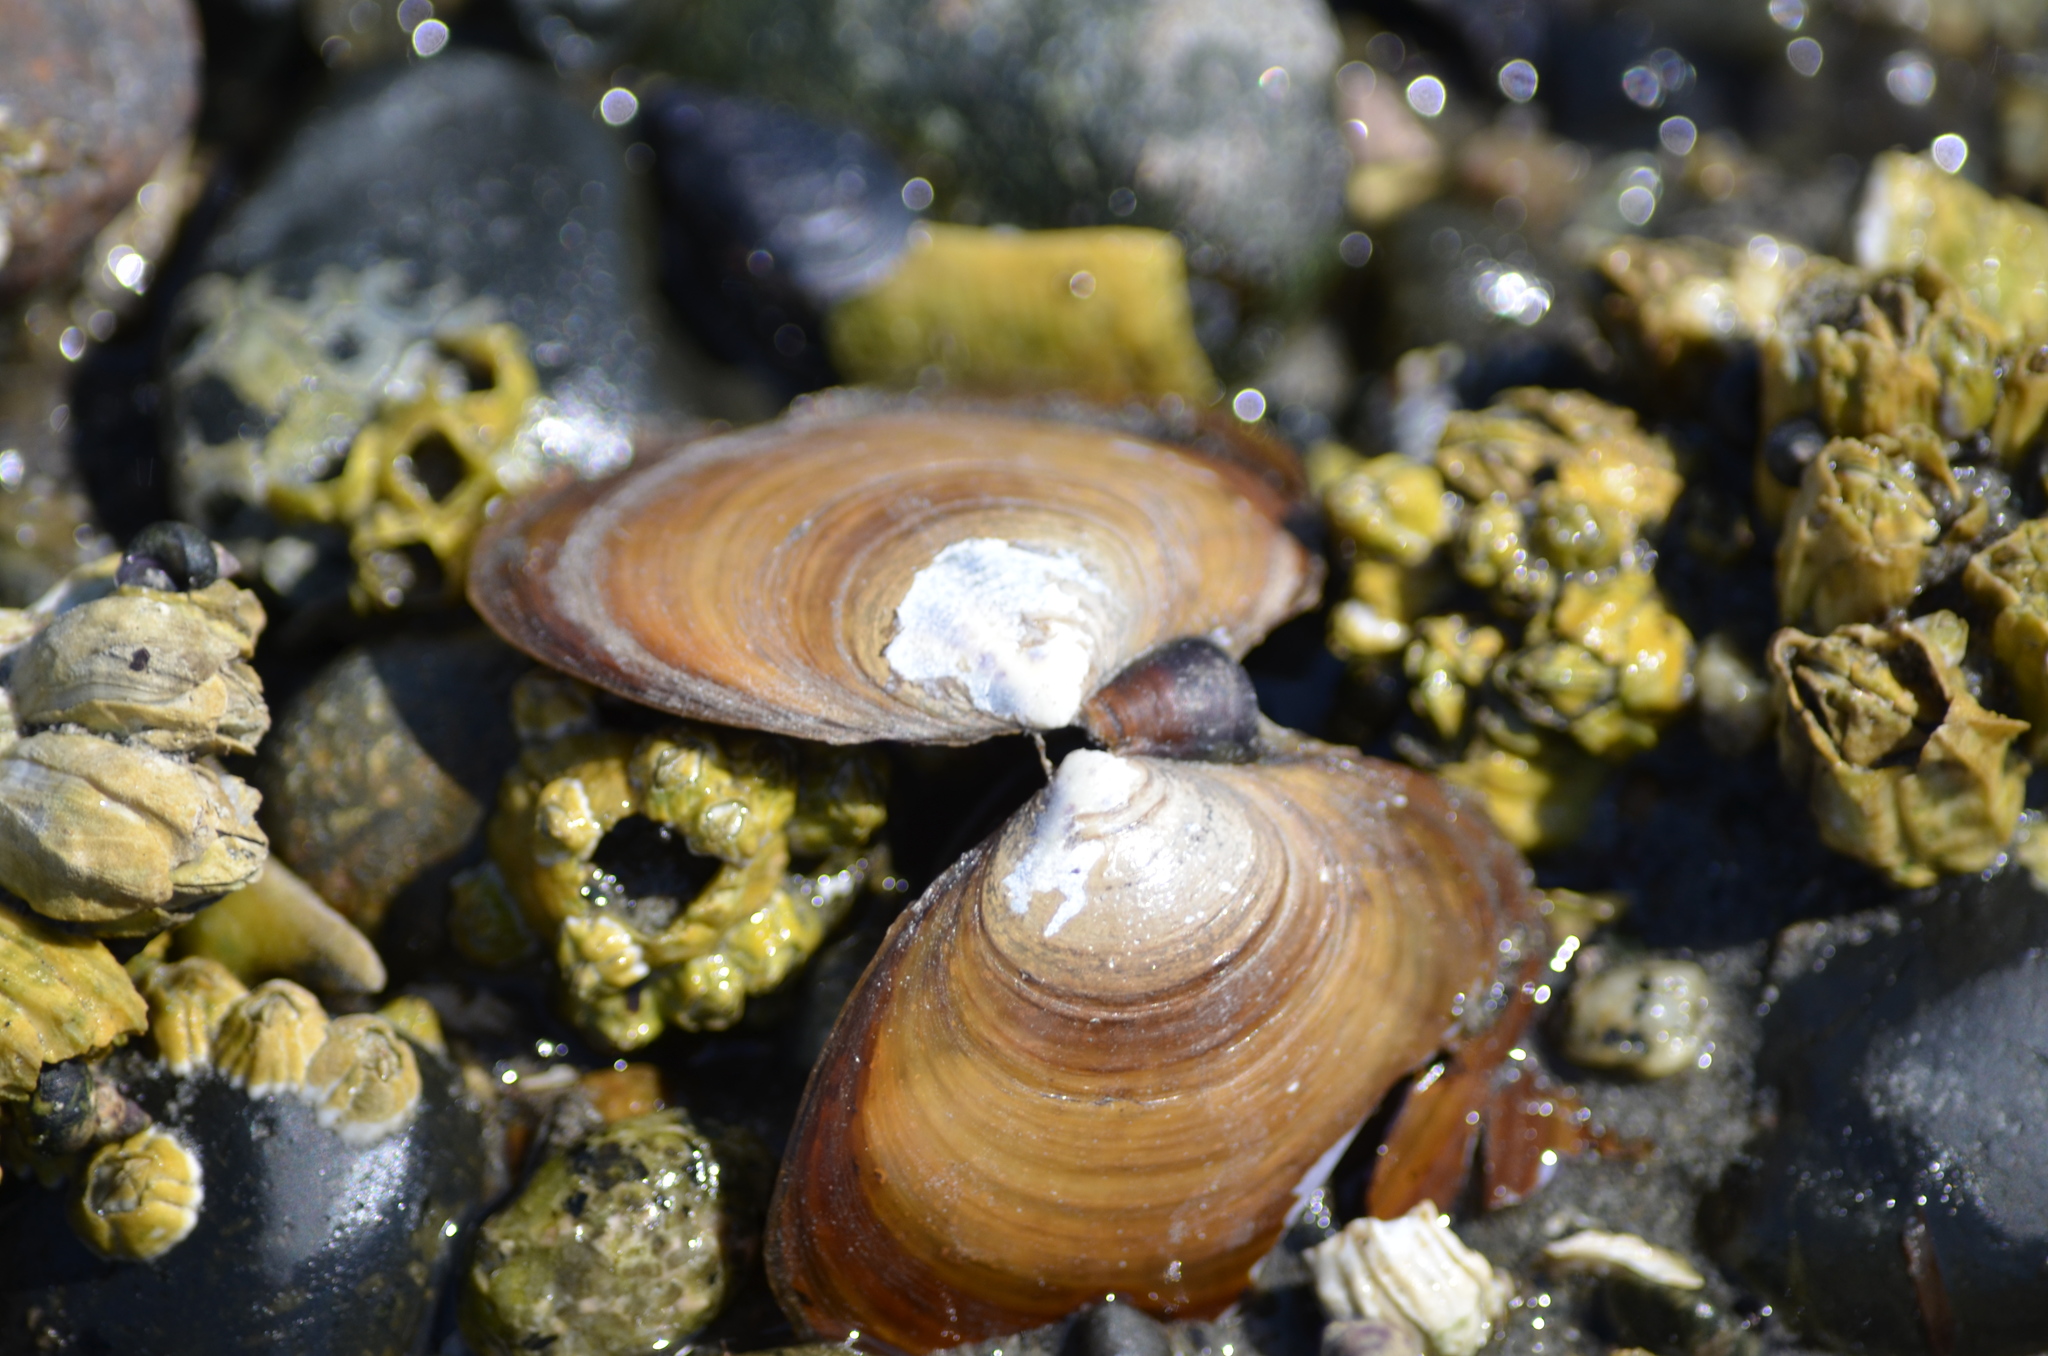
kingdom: Animalia
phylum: Mollusca
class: Bivalvia
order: Cardiida
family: Psammobiidae
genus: Nuttallia
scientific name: Nuttallia obscurata
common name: Purple mahogany-clam
